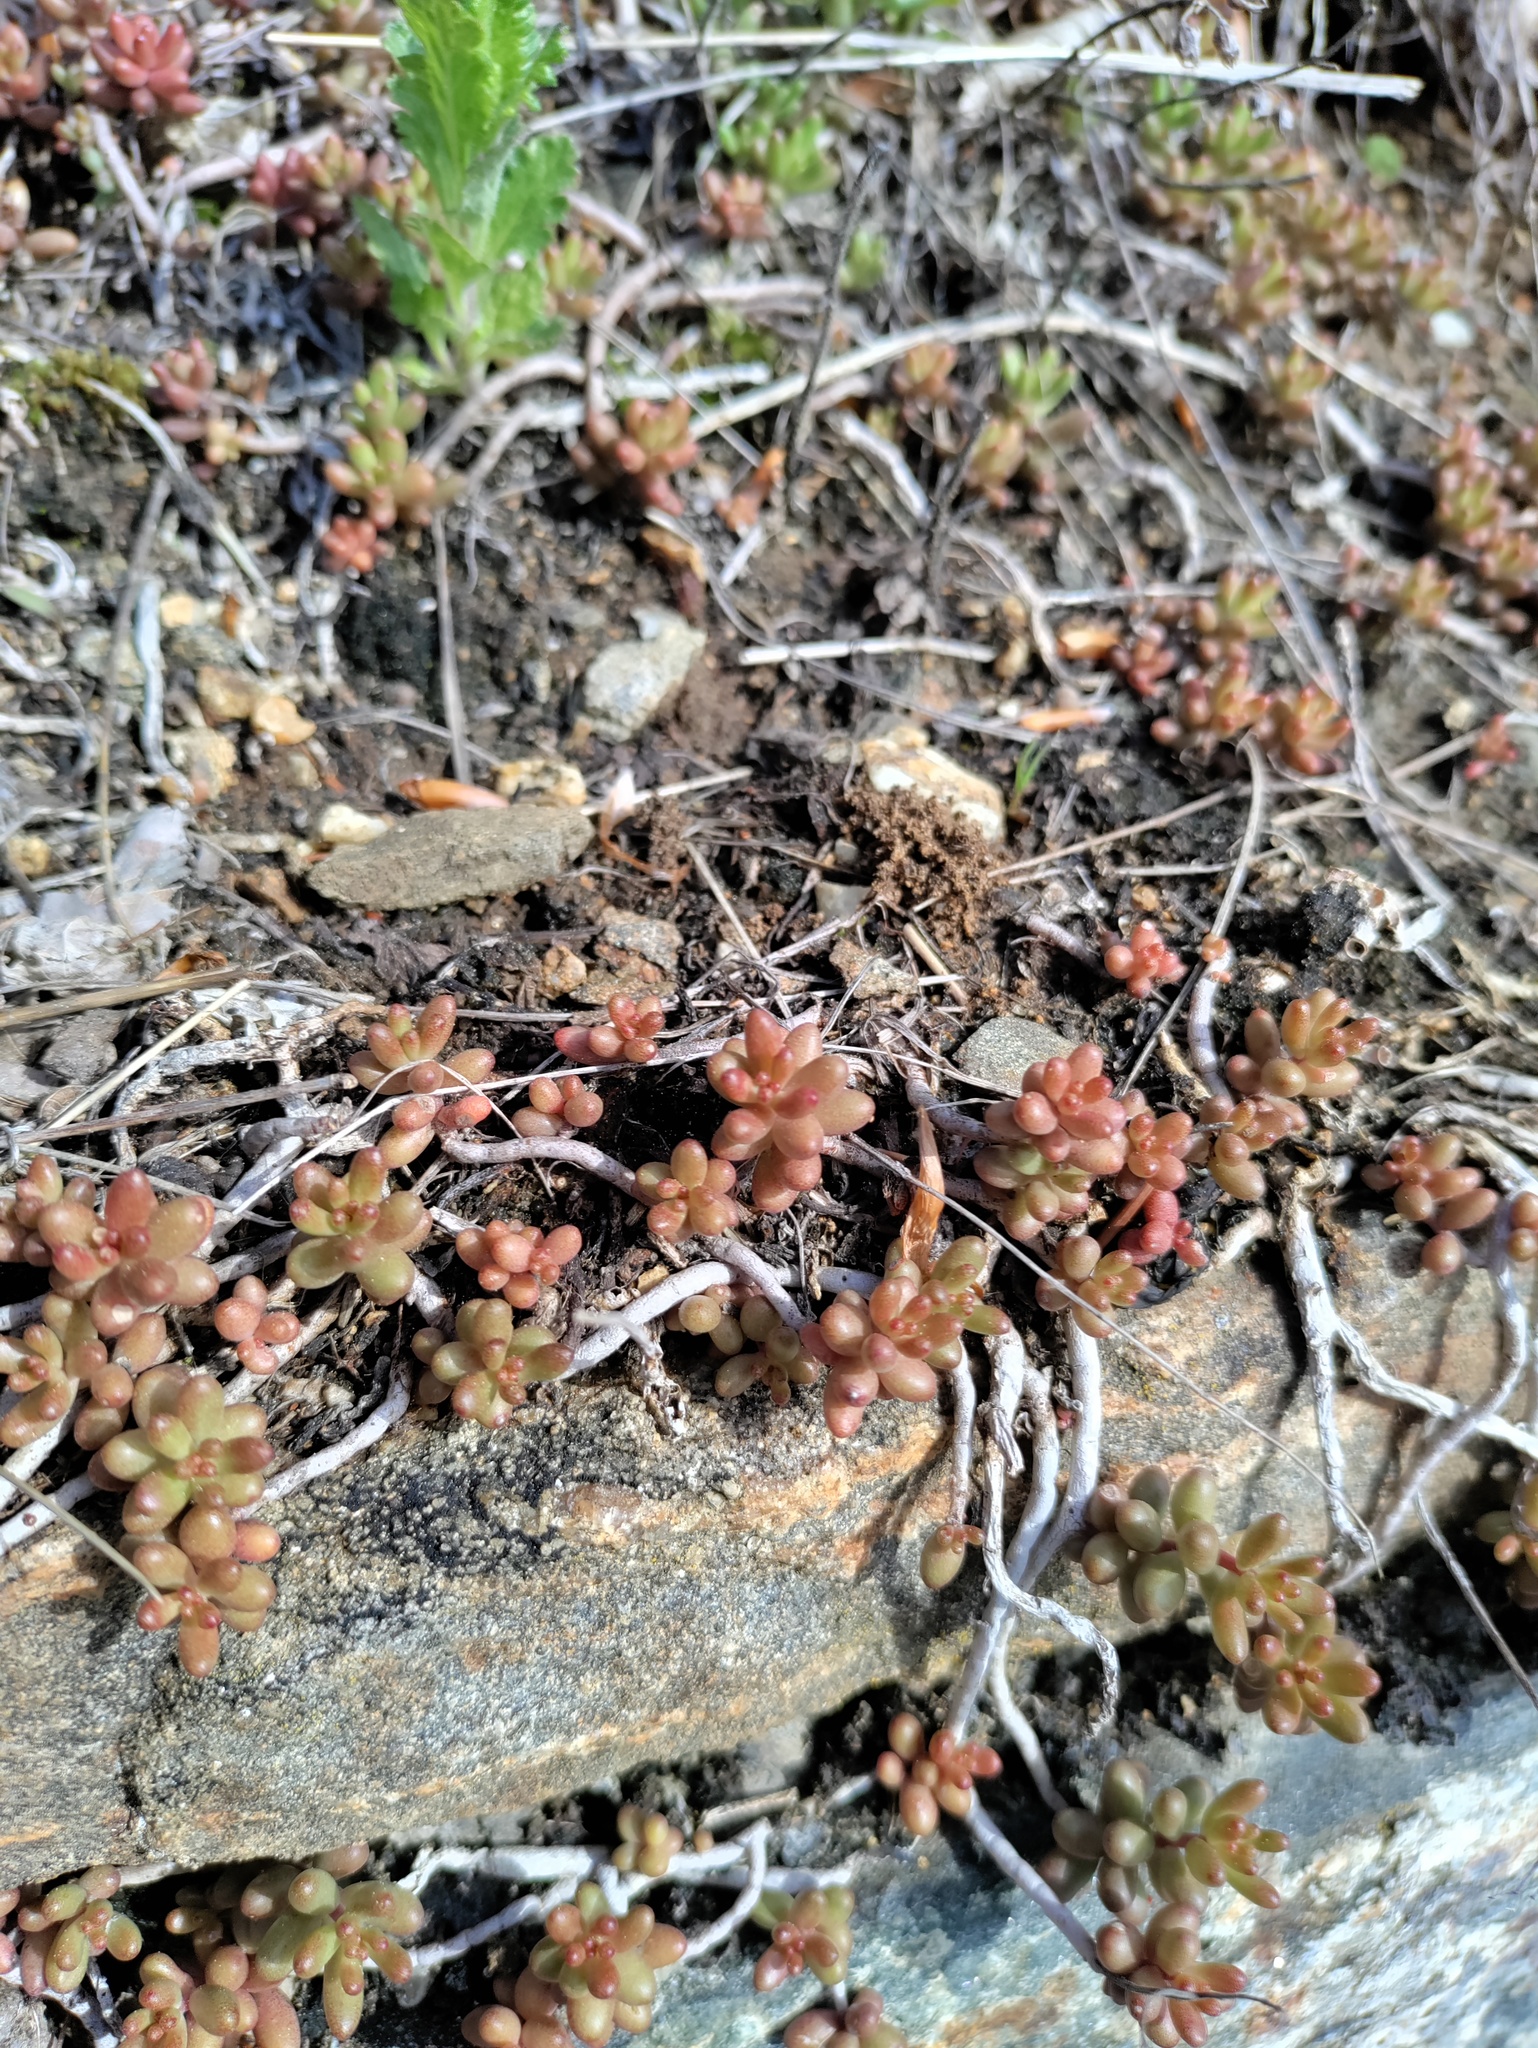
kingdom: Plantae
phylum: Tracheophyta
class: Magnoliopsida
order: Saxifragales
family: Crassulaceae
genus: Sedum
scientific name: Sedum album
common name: White stonecrop
